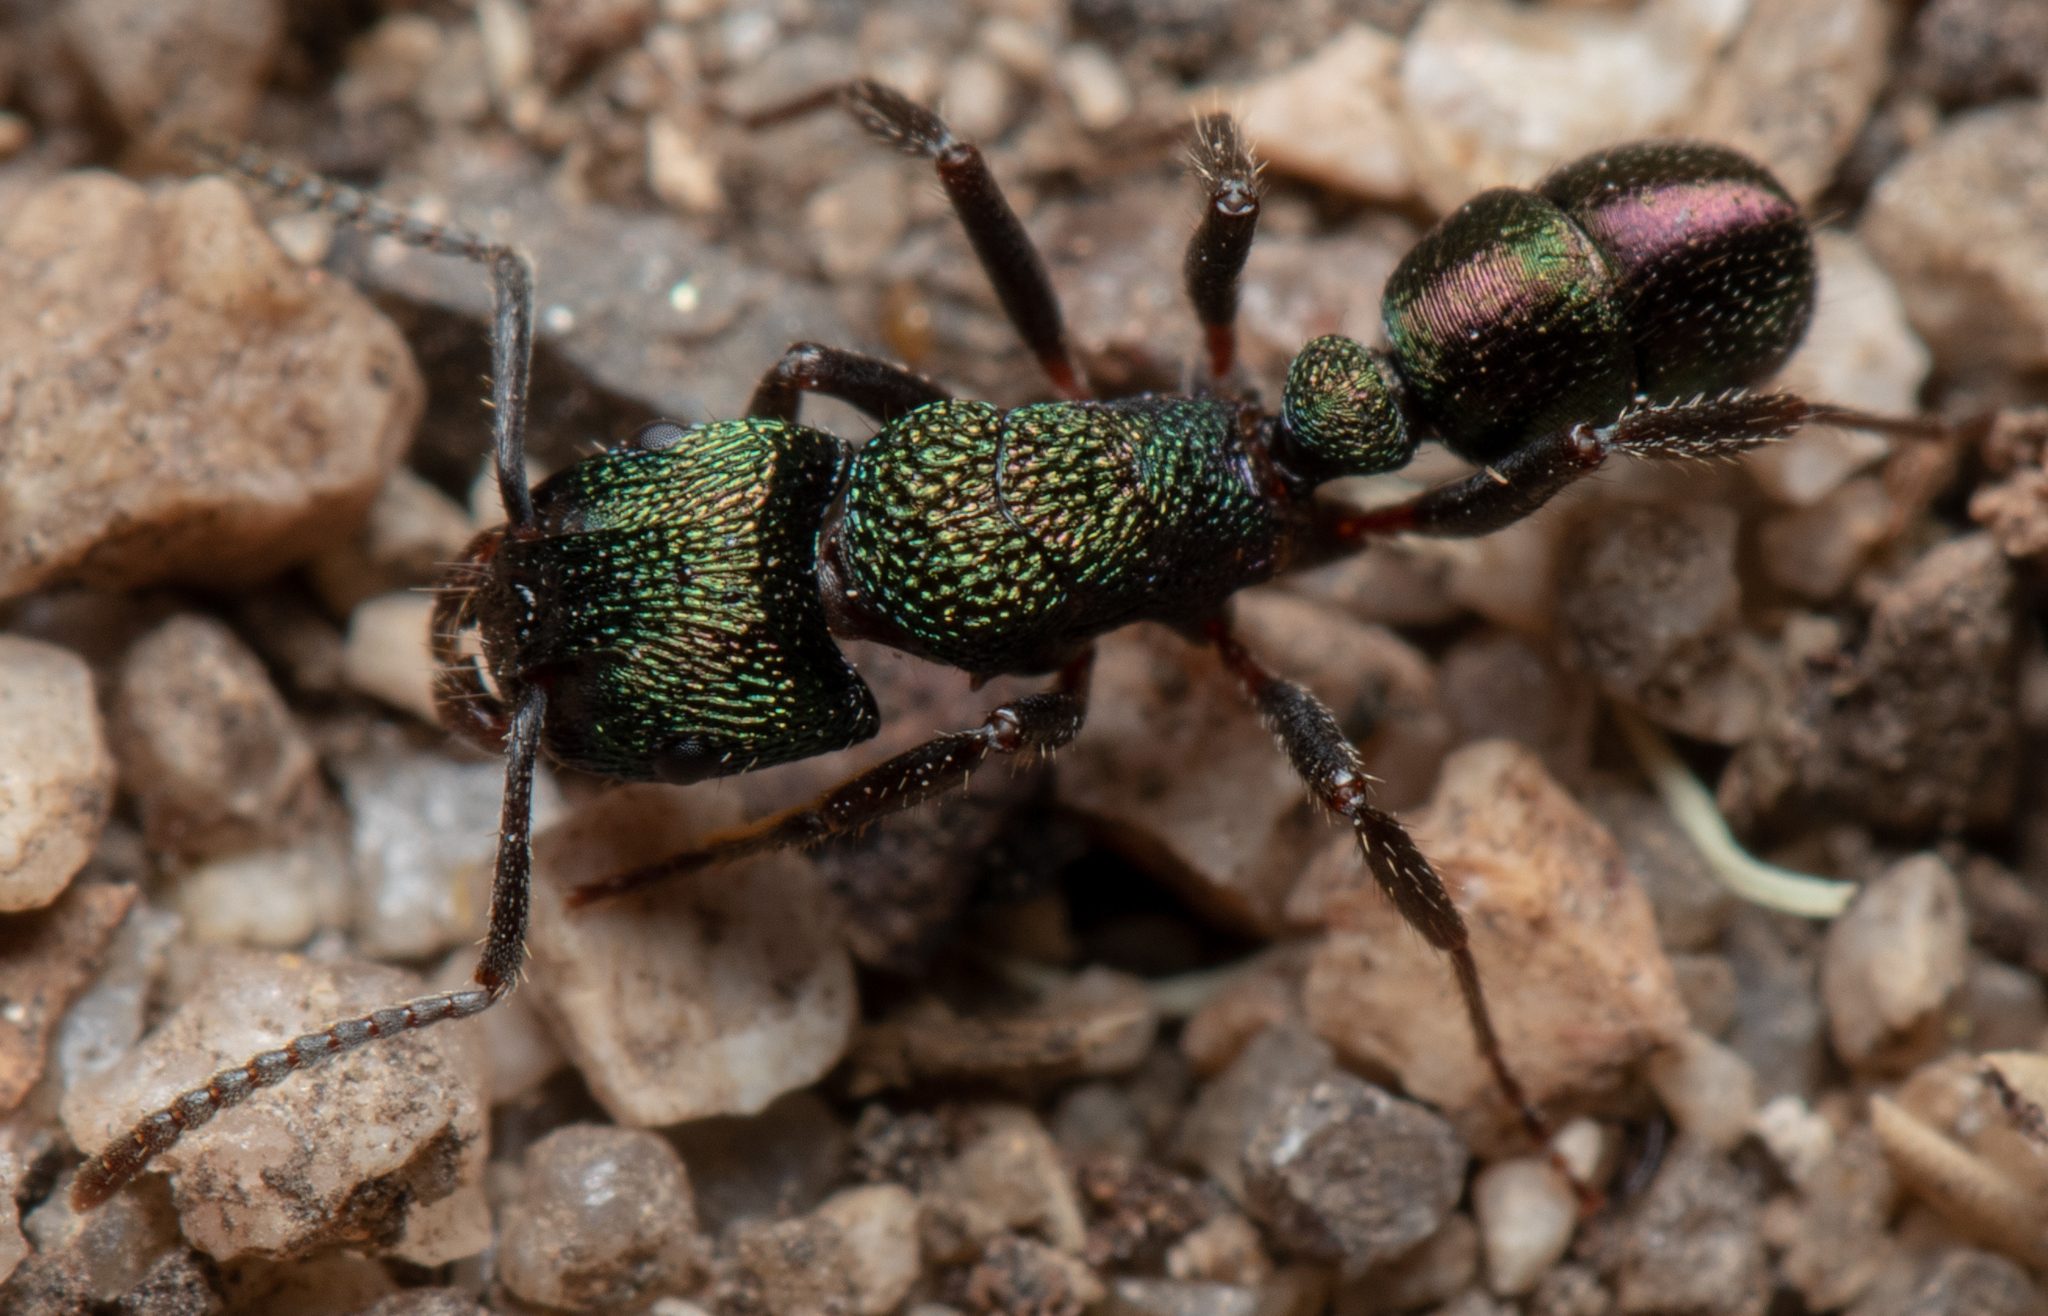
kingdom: Animalia
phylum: Arthropoda
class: Insecta
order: Hymenoptera
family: Formicidae
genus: Rhytidoponera
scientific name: Rhytidoponera metallica
